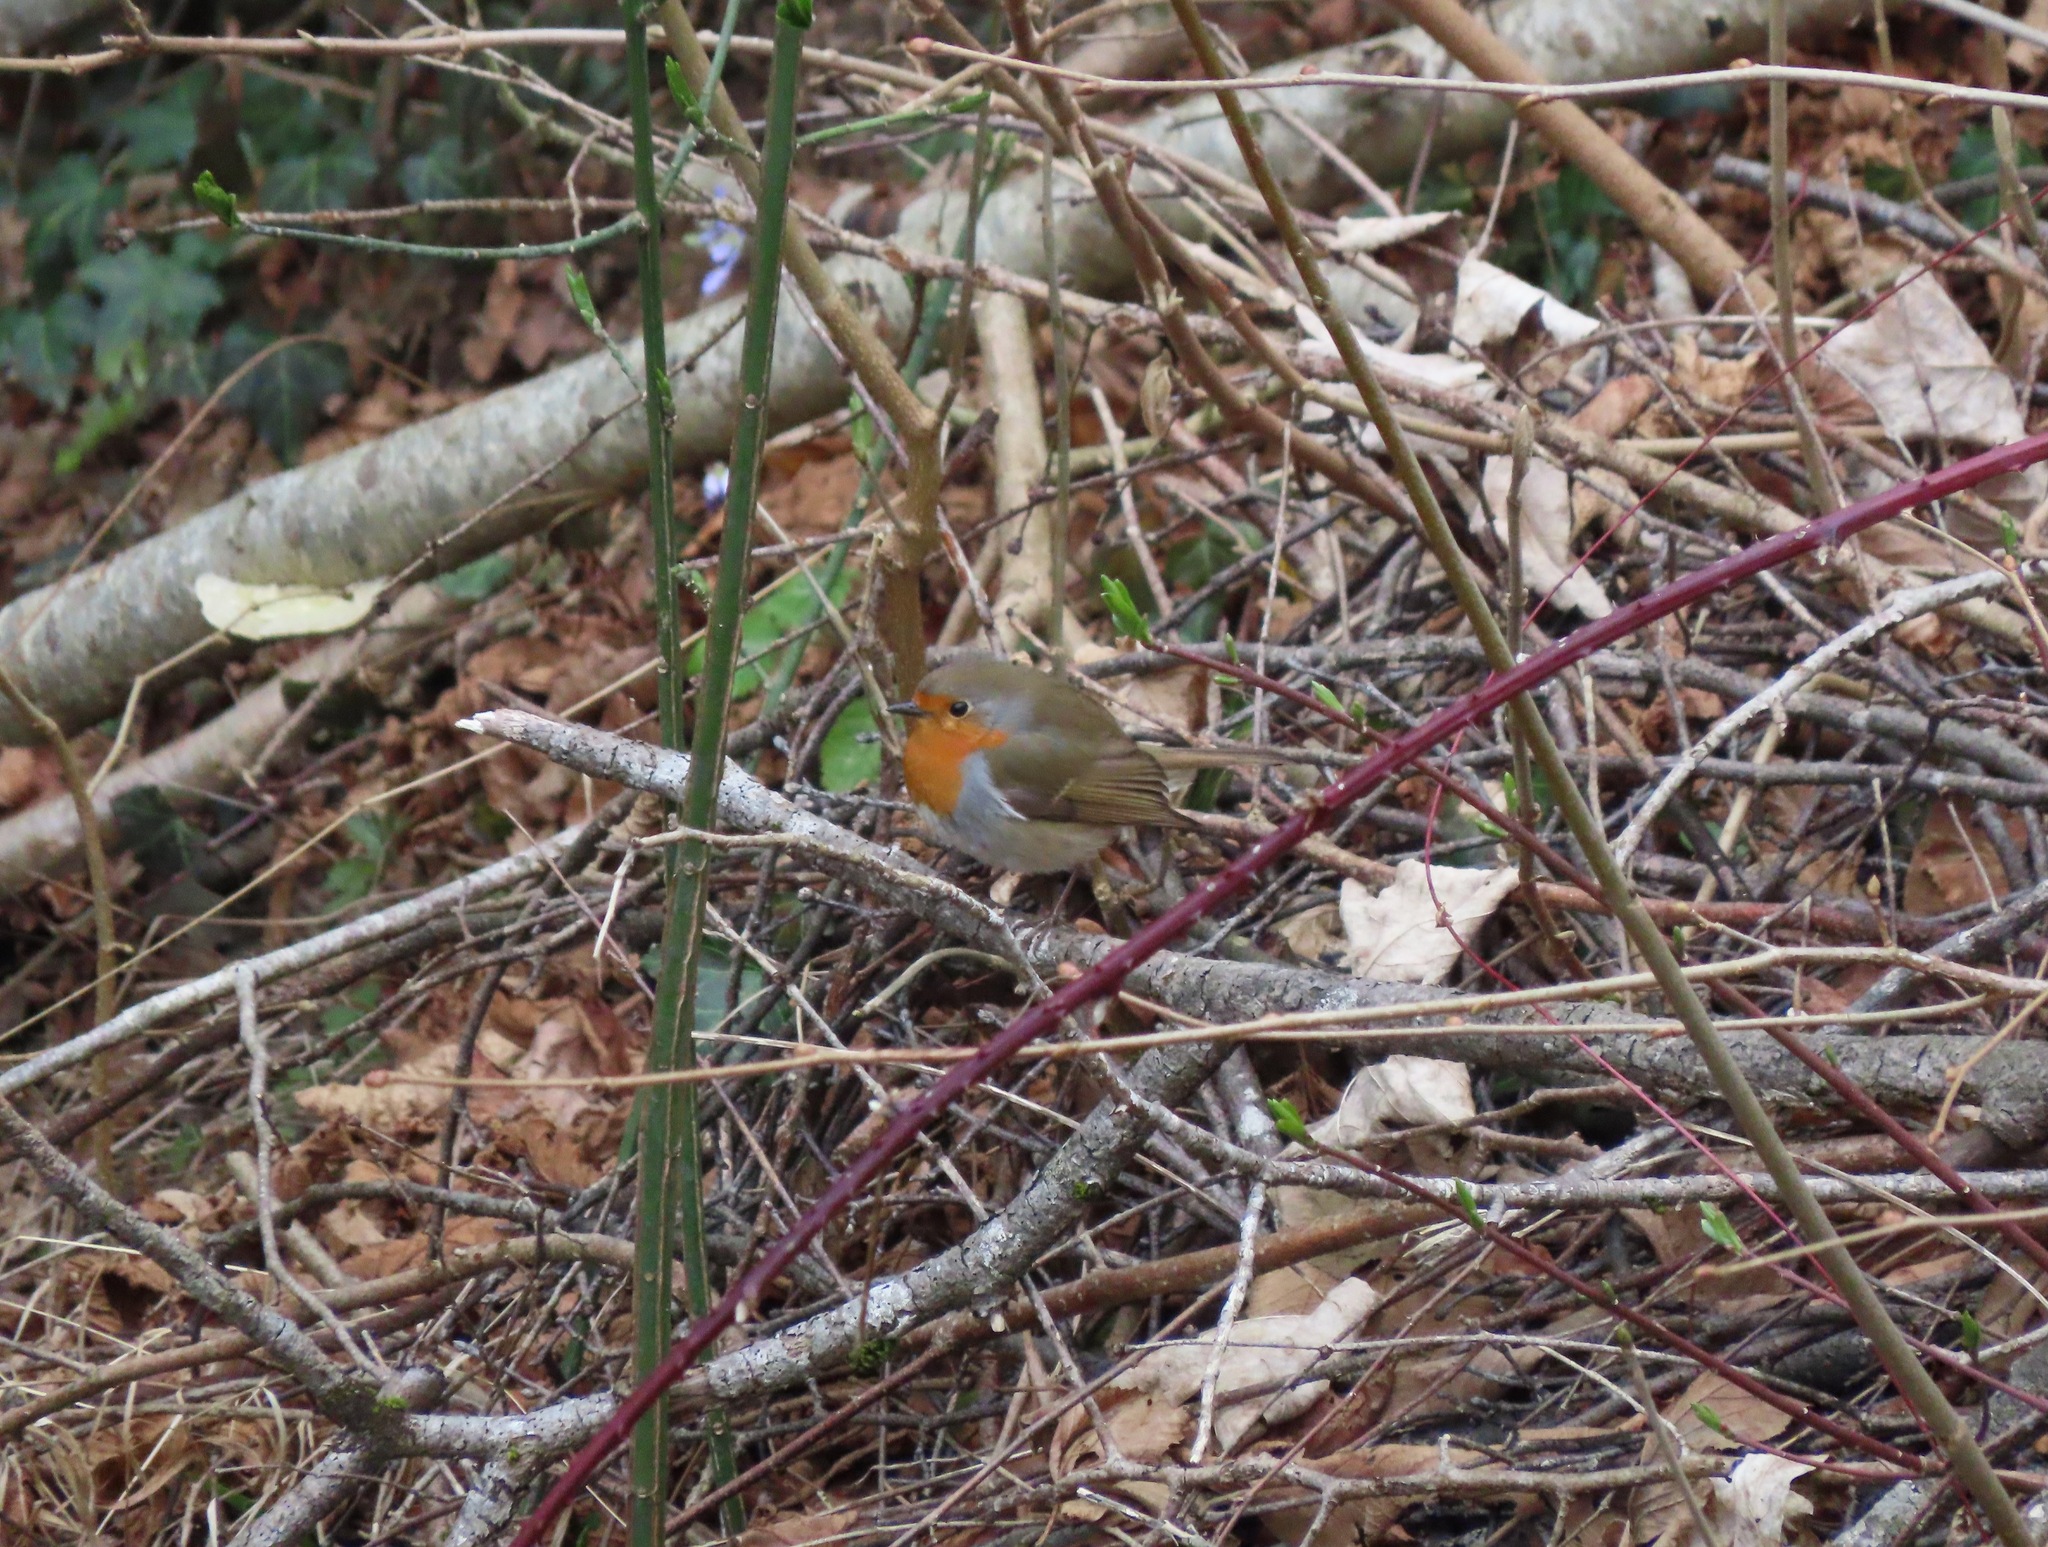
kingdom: Animalia
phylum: Chordata
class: Aves
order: Passeriformes
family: Muscicapidae
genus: Erithacus
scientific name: Erithacus rubecula
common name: European robin
